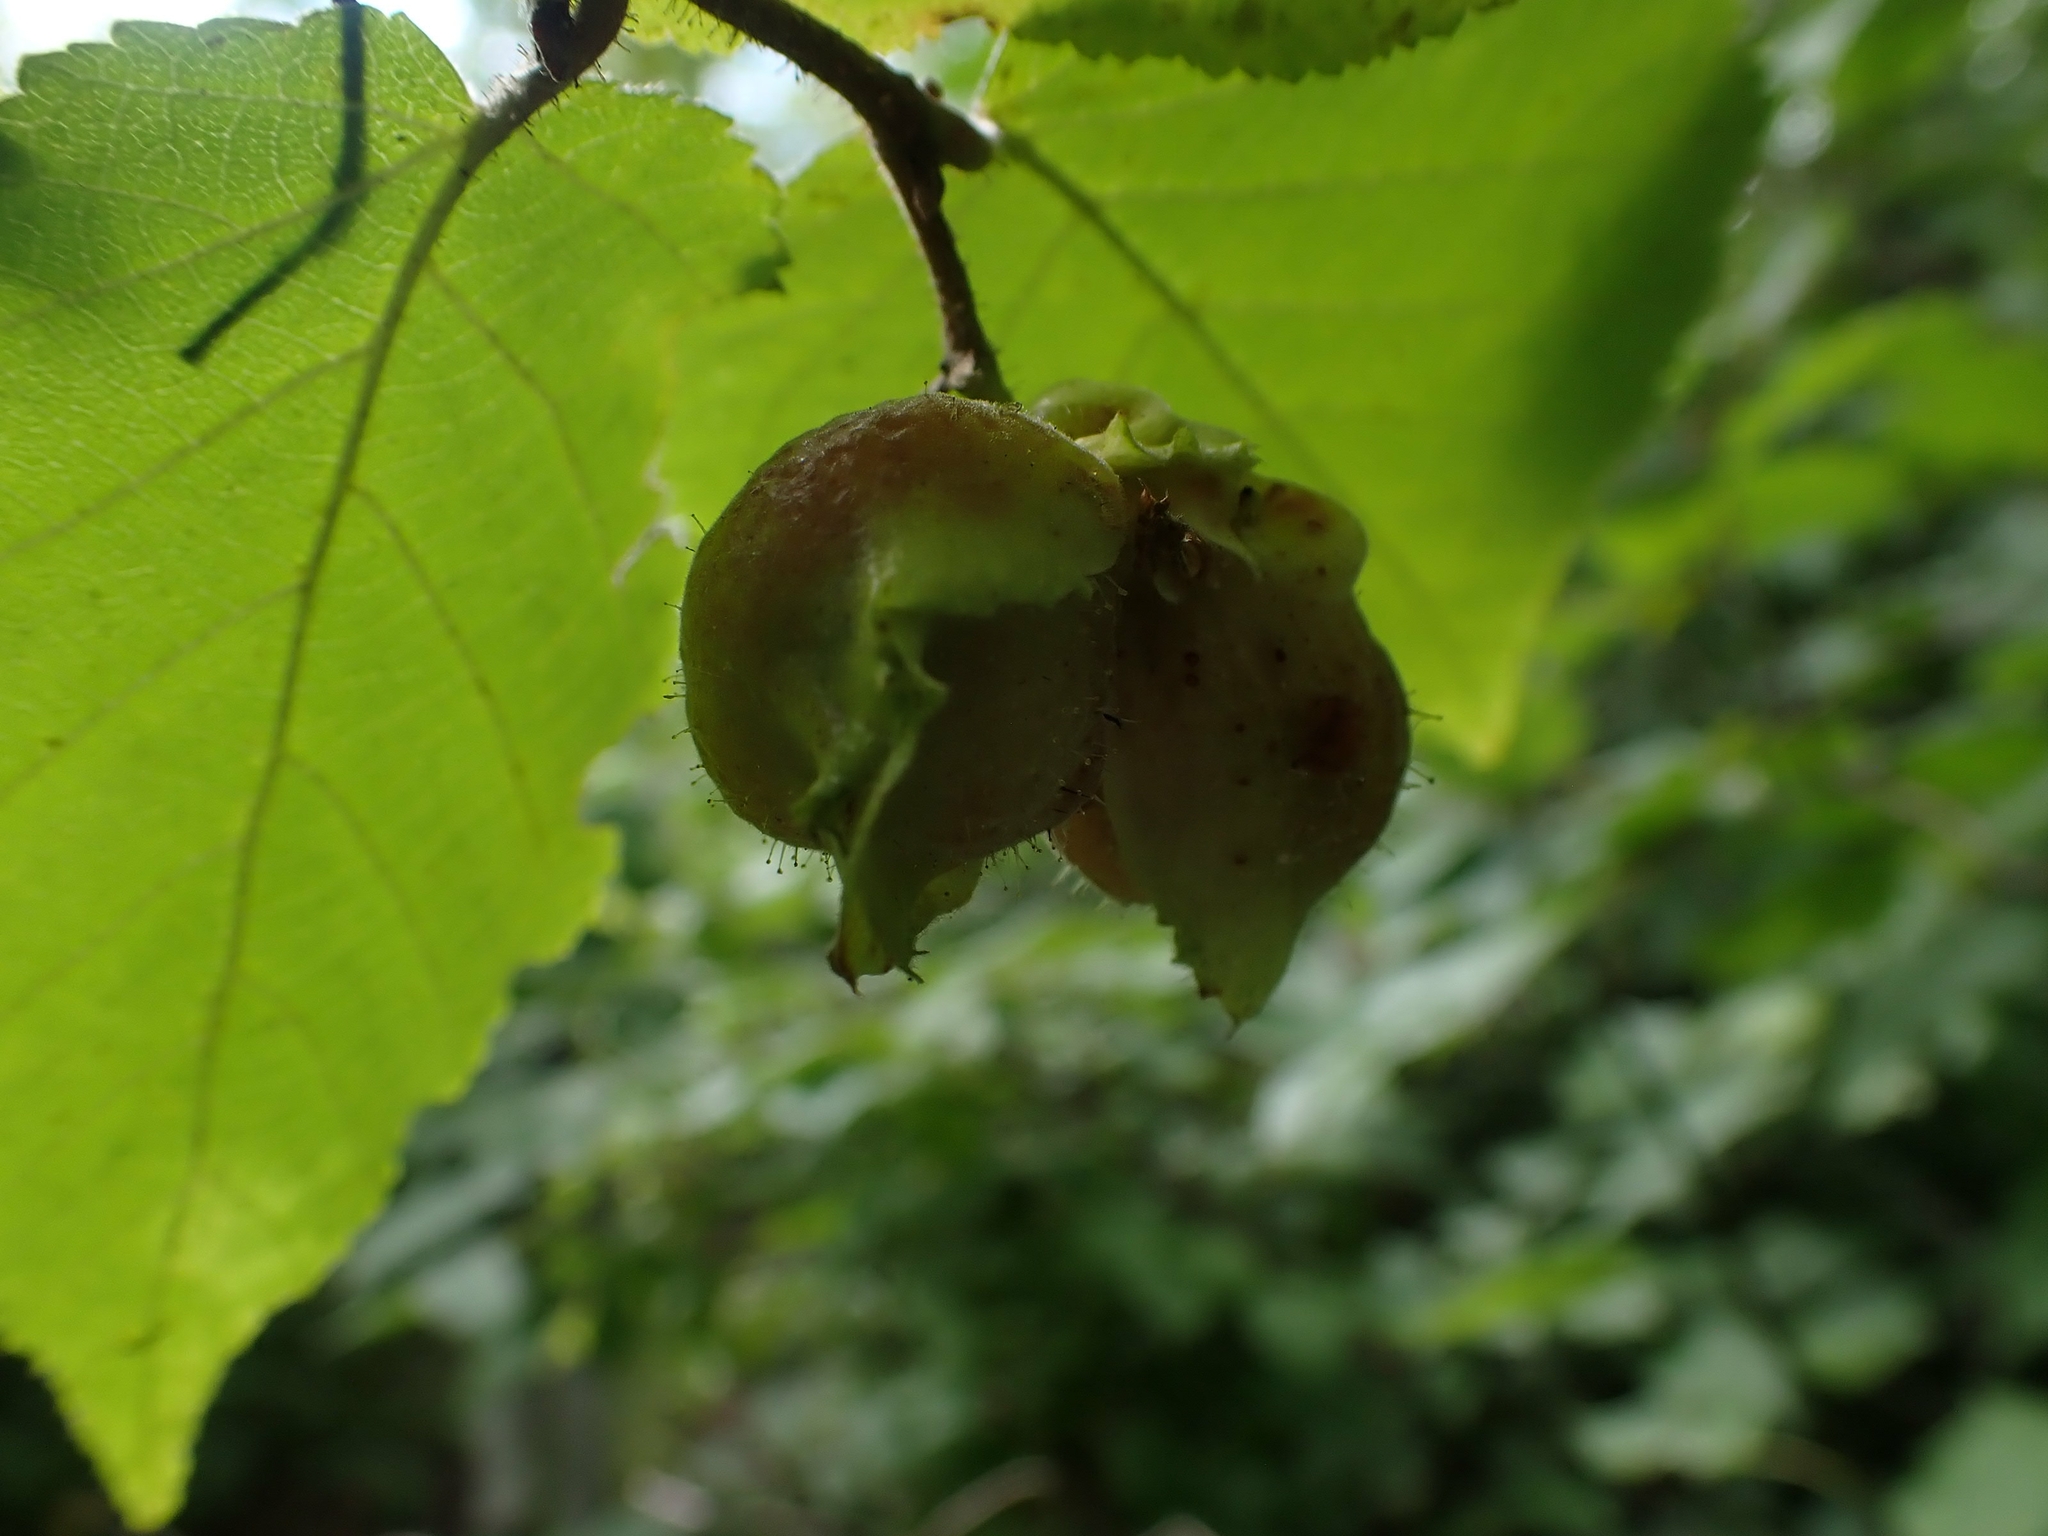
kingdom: Plantae
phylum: Tracheophyta
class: Magnoliopsida
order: Fagales
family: Betulaceae
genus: Corylus
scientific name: Corylus americana
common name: American hazel
